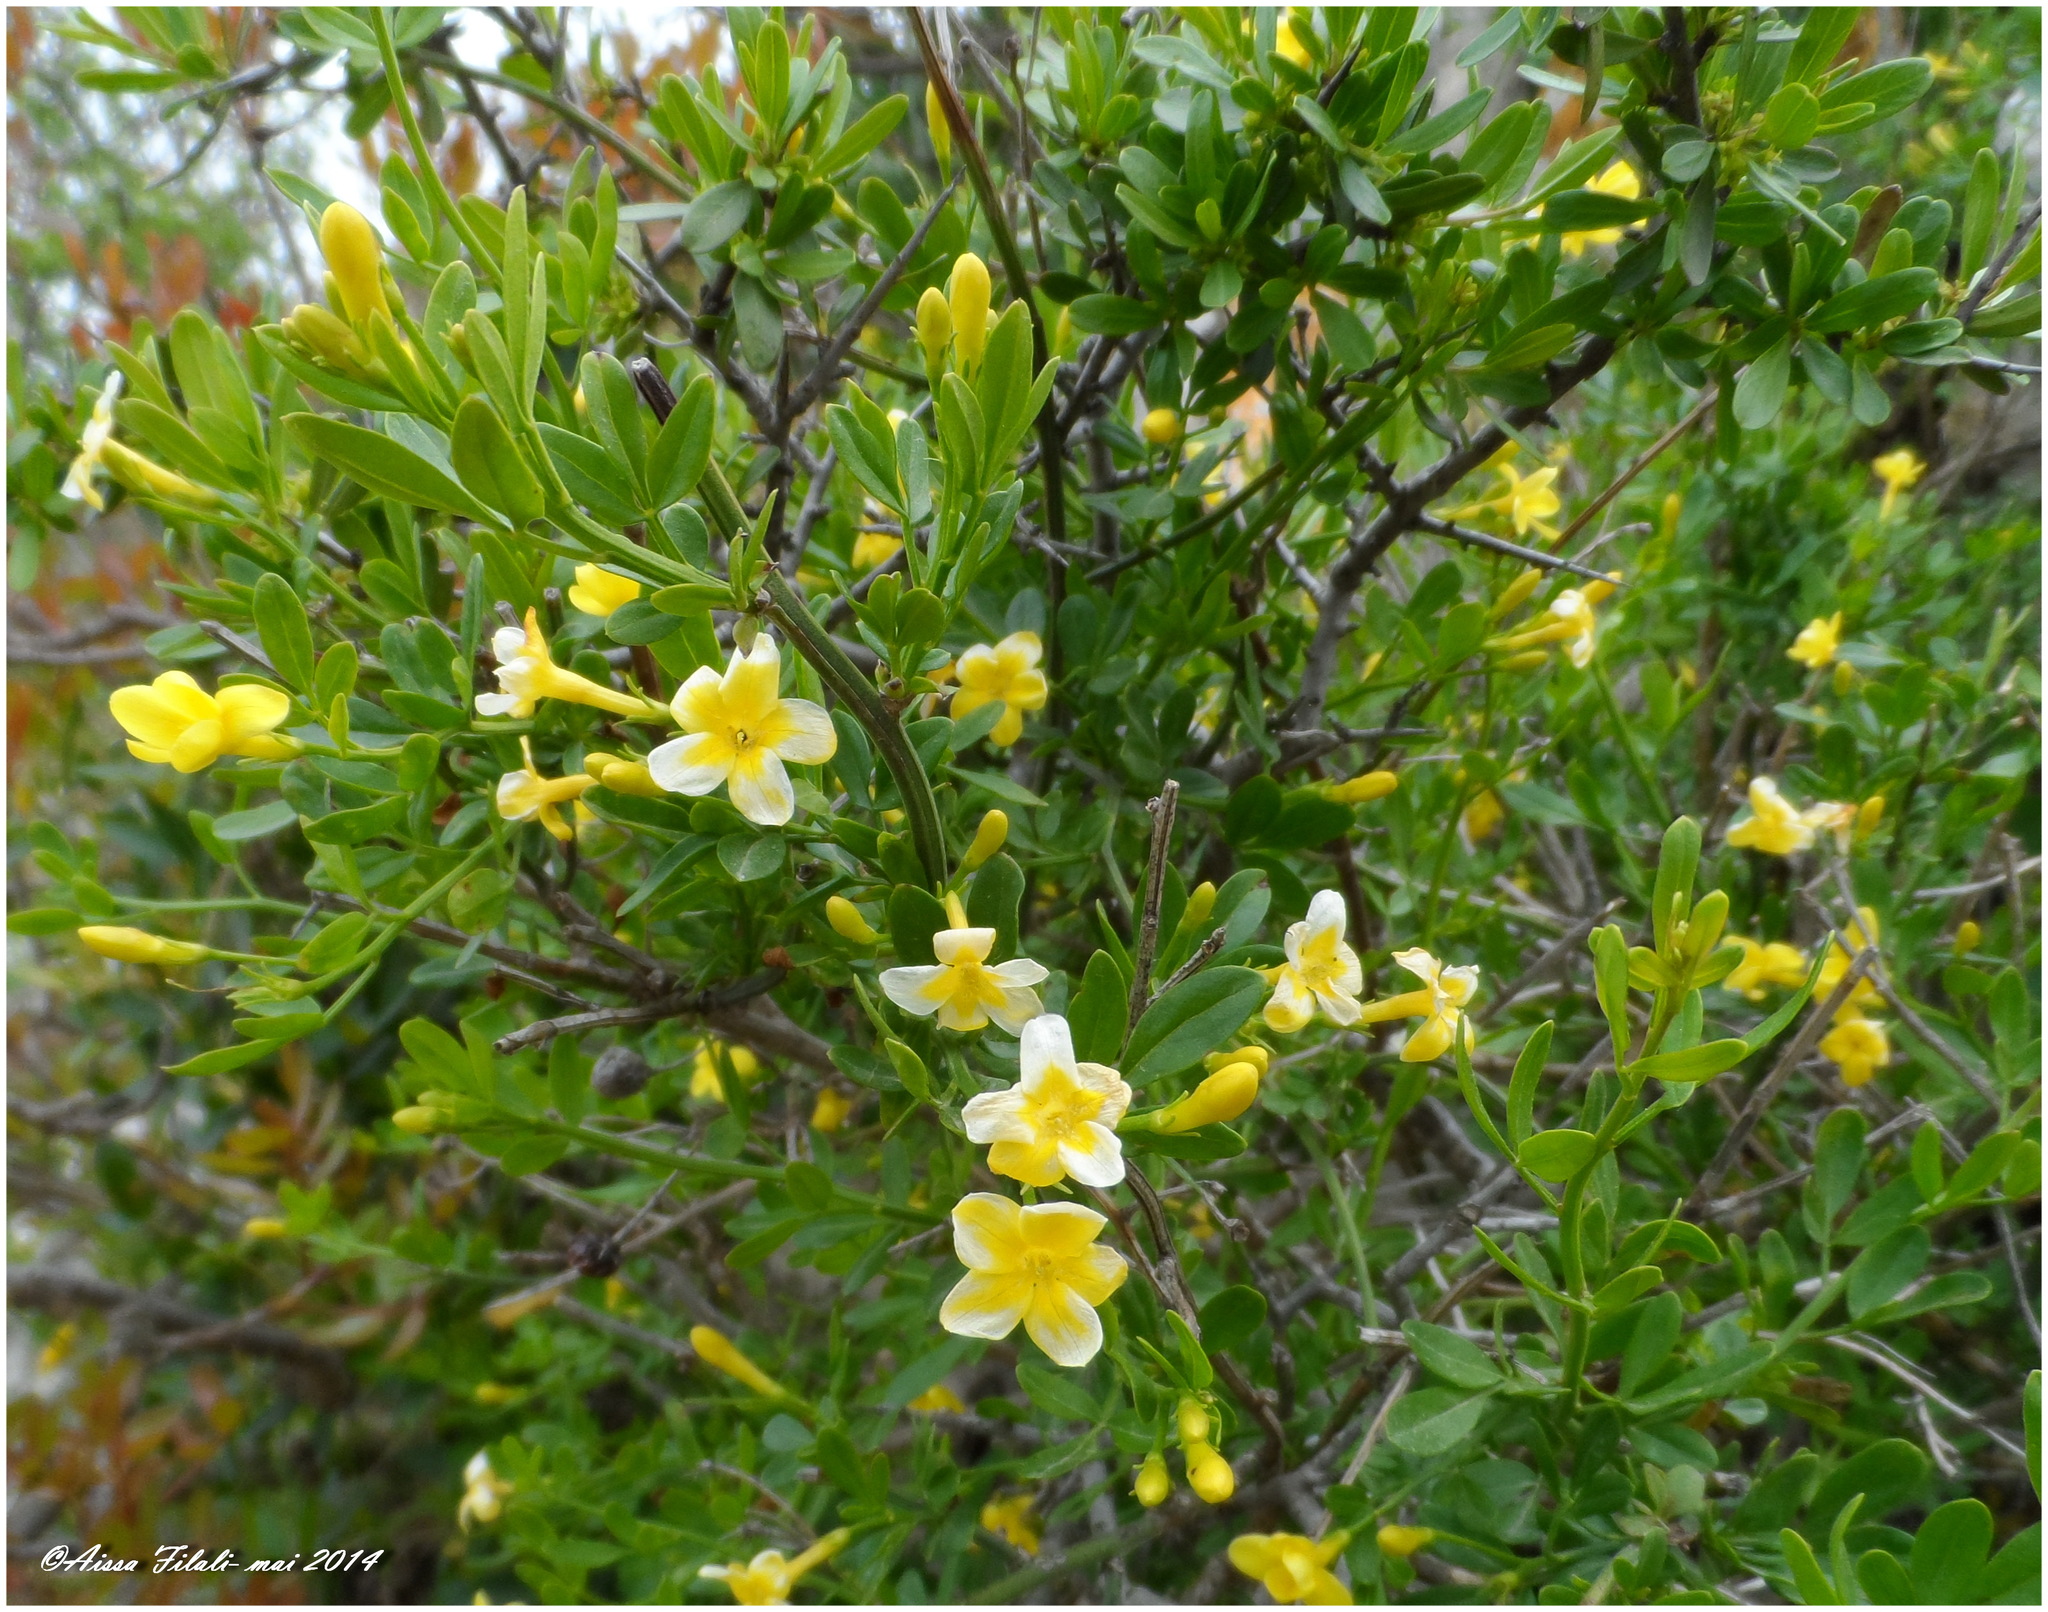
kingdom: Plantae
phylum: Tracheophyta
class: Magnoliopsida
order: Lamiales
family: Oleaceae
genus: Chrysojasminum
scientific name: Chrysojasminum fruticans
